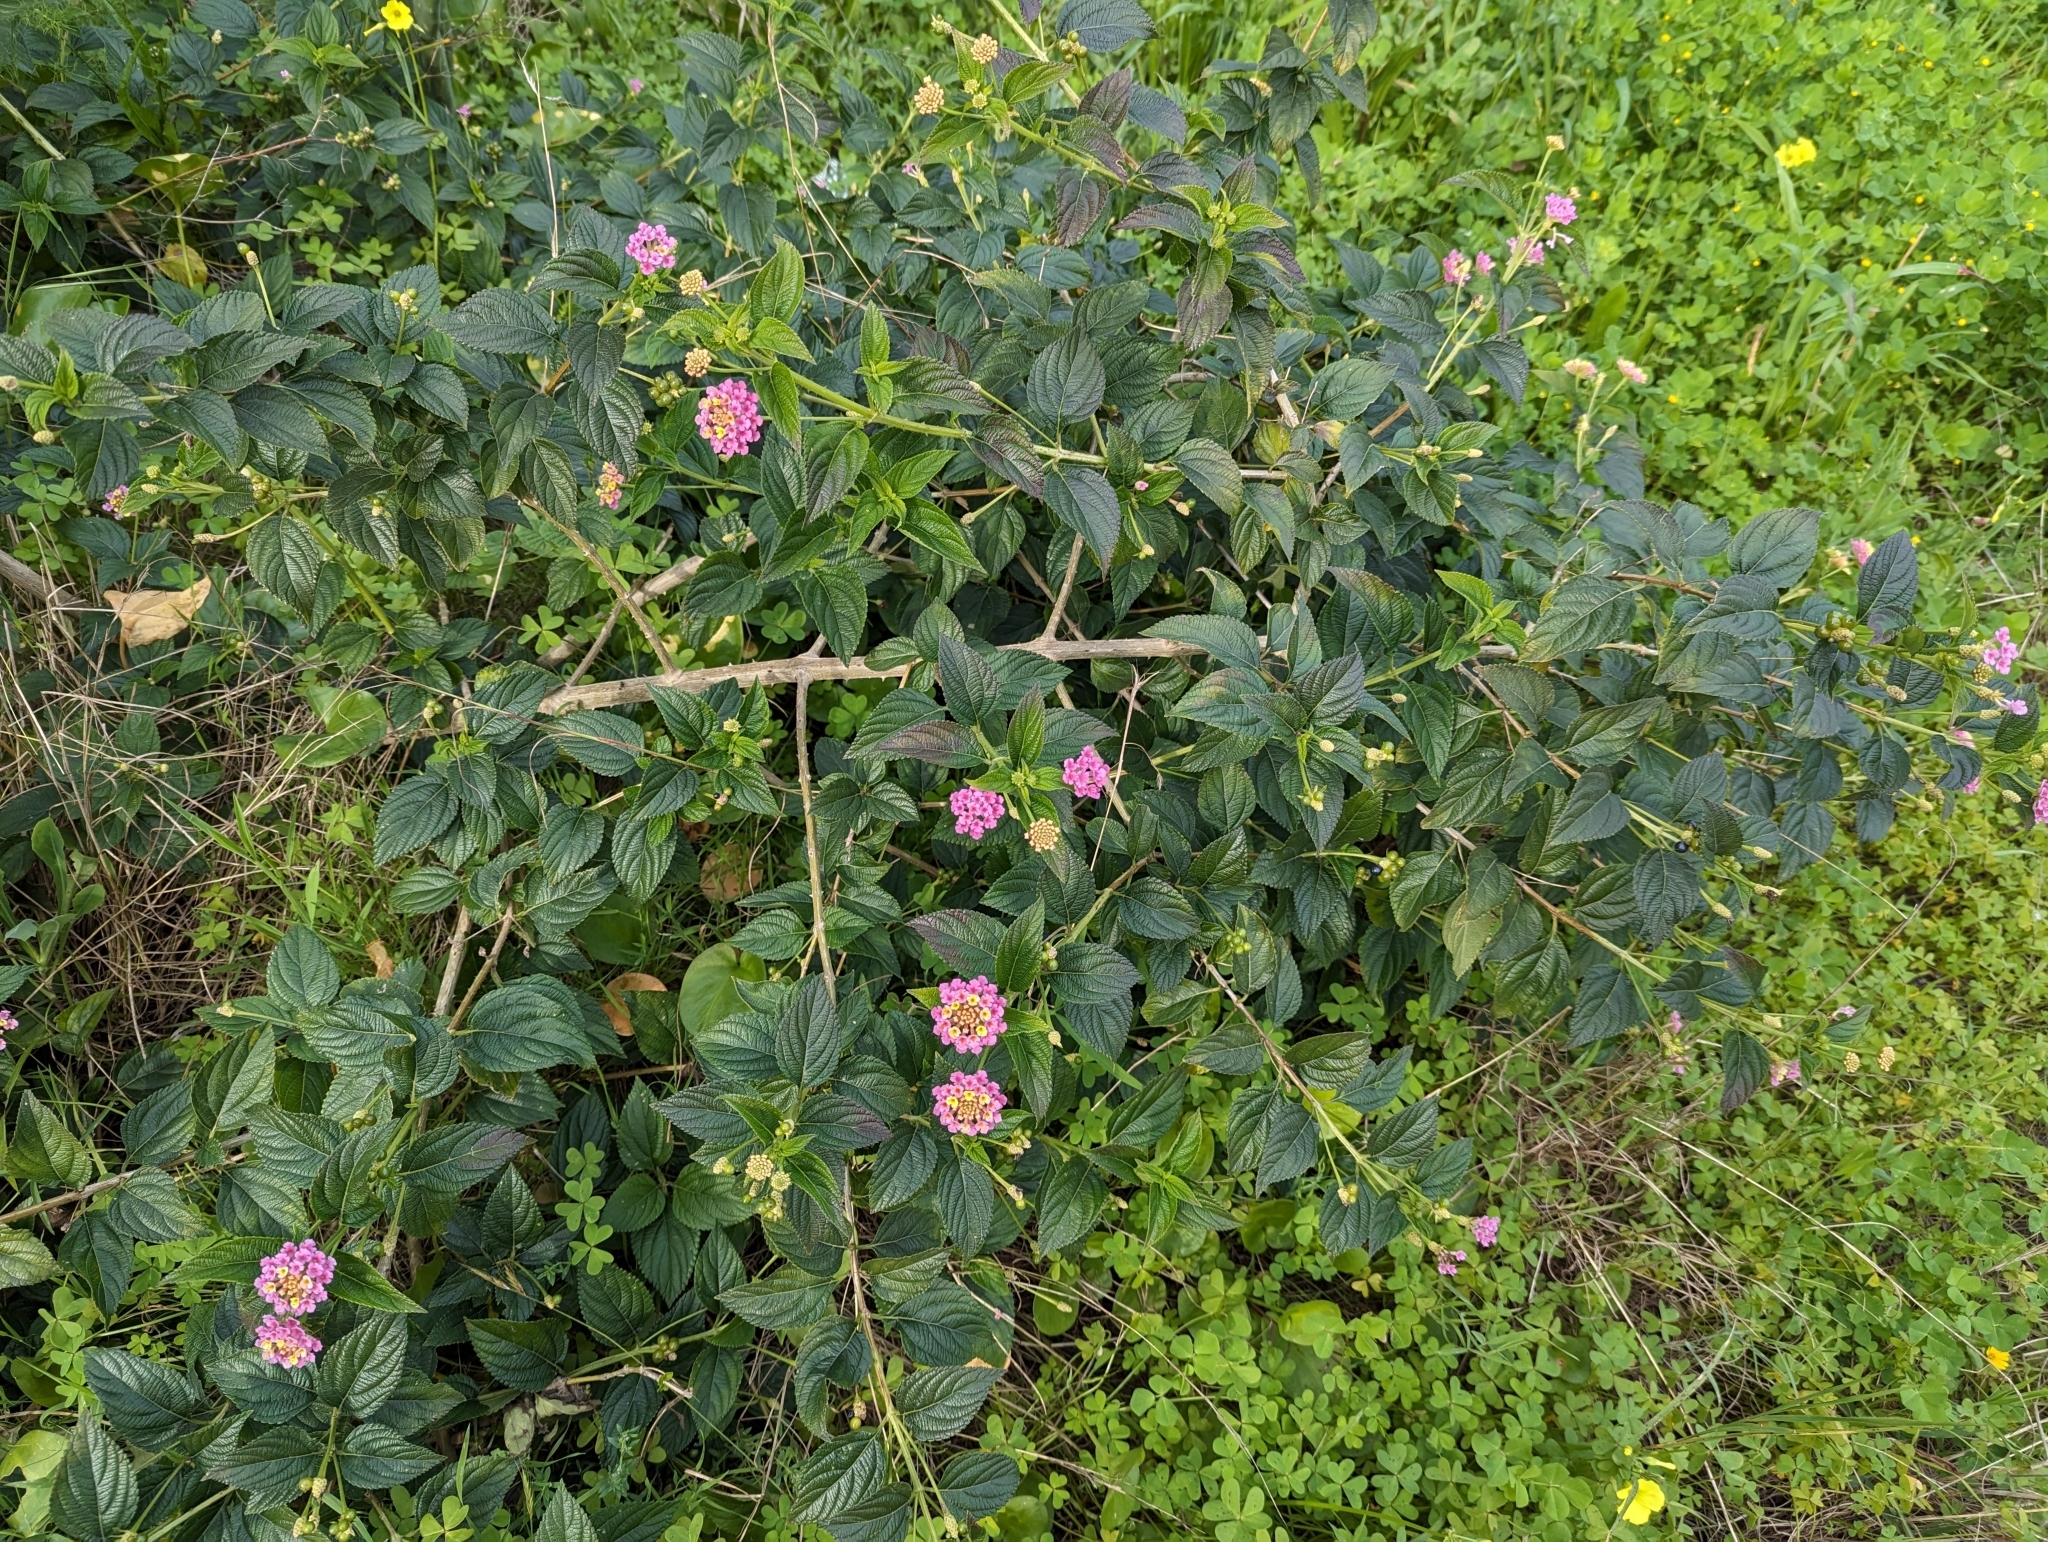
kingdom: Plantae
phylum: Tracheophyta
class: Magnoliopsida
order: Lamiales
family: Verbenaceae
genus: Lantana
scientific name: Lantana camara
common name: Lantana
